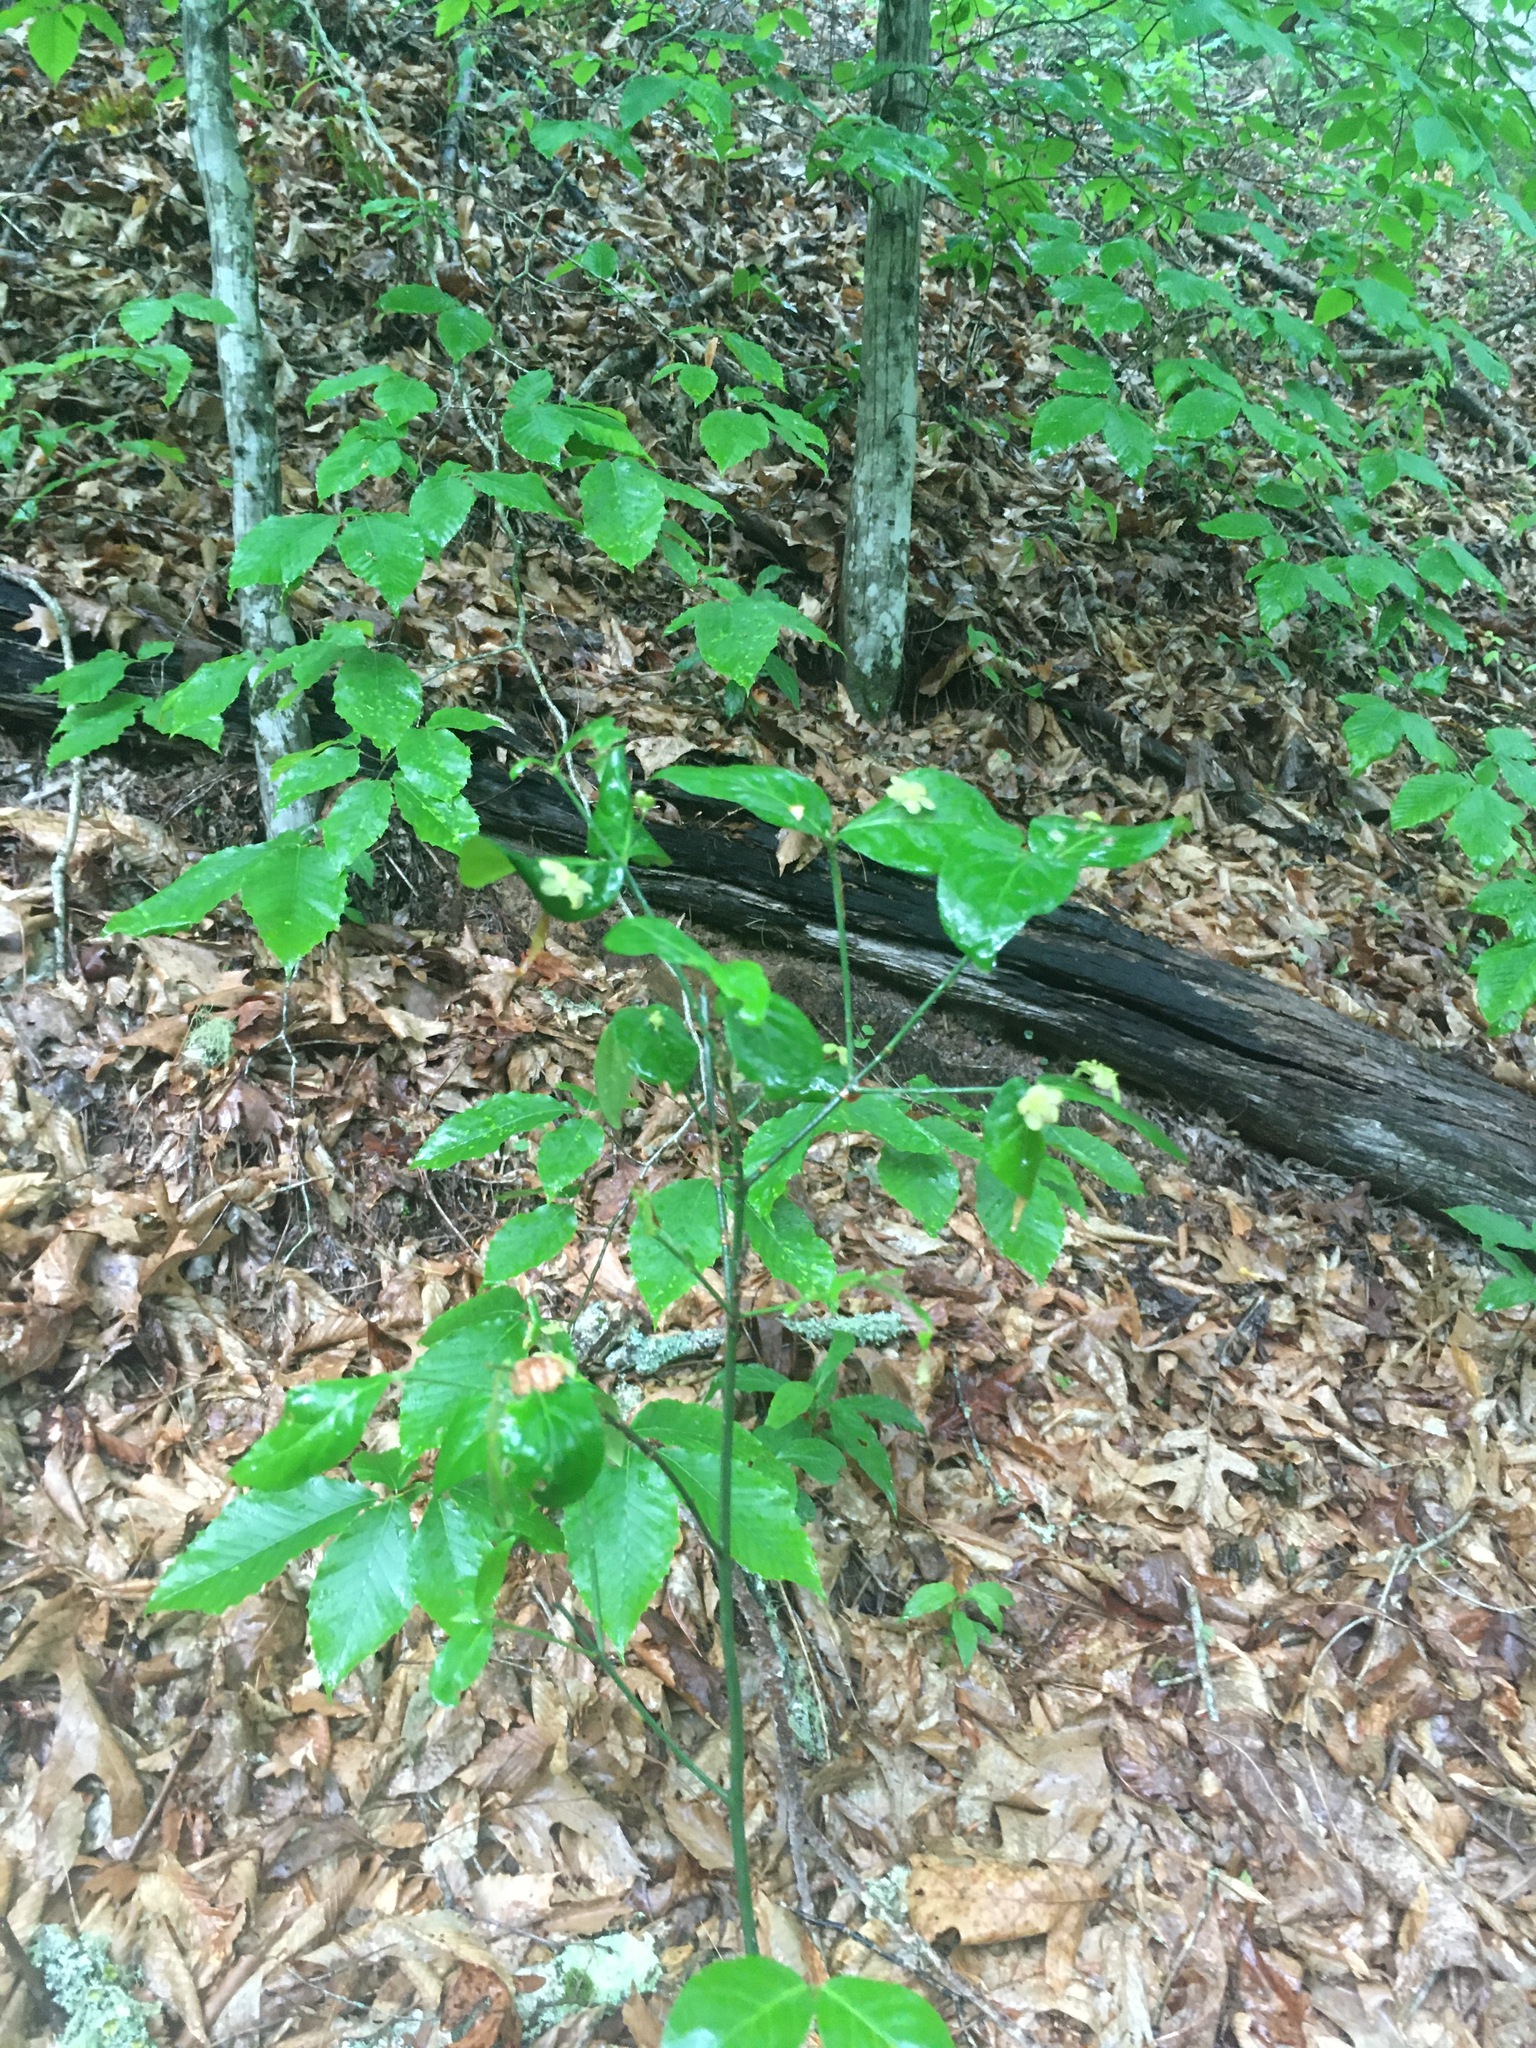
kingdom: Plantae
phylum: Tracheophyta
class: Magnoliopsida
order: Celastrales
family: Celastraceae
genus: Euonymus
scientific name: Euonymus americanus
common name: Bursting-heart
